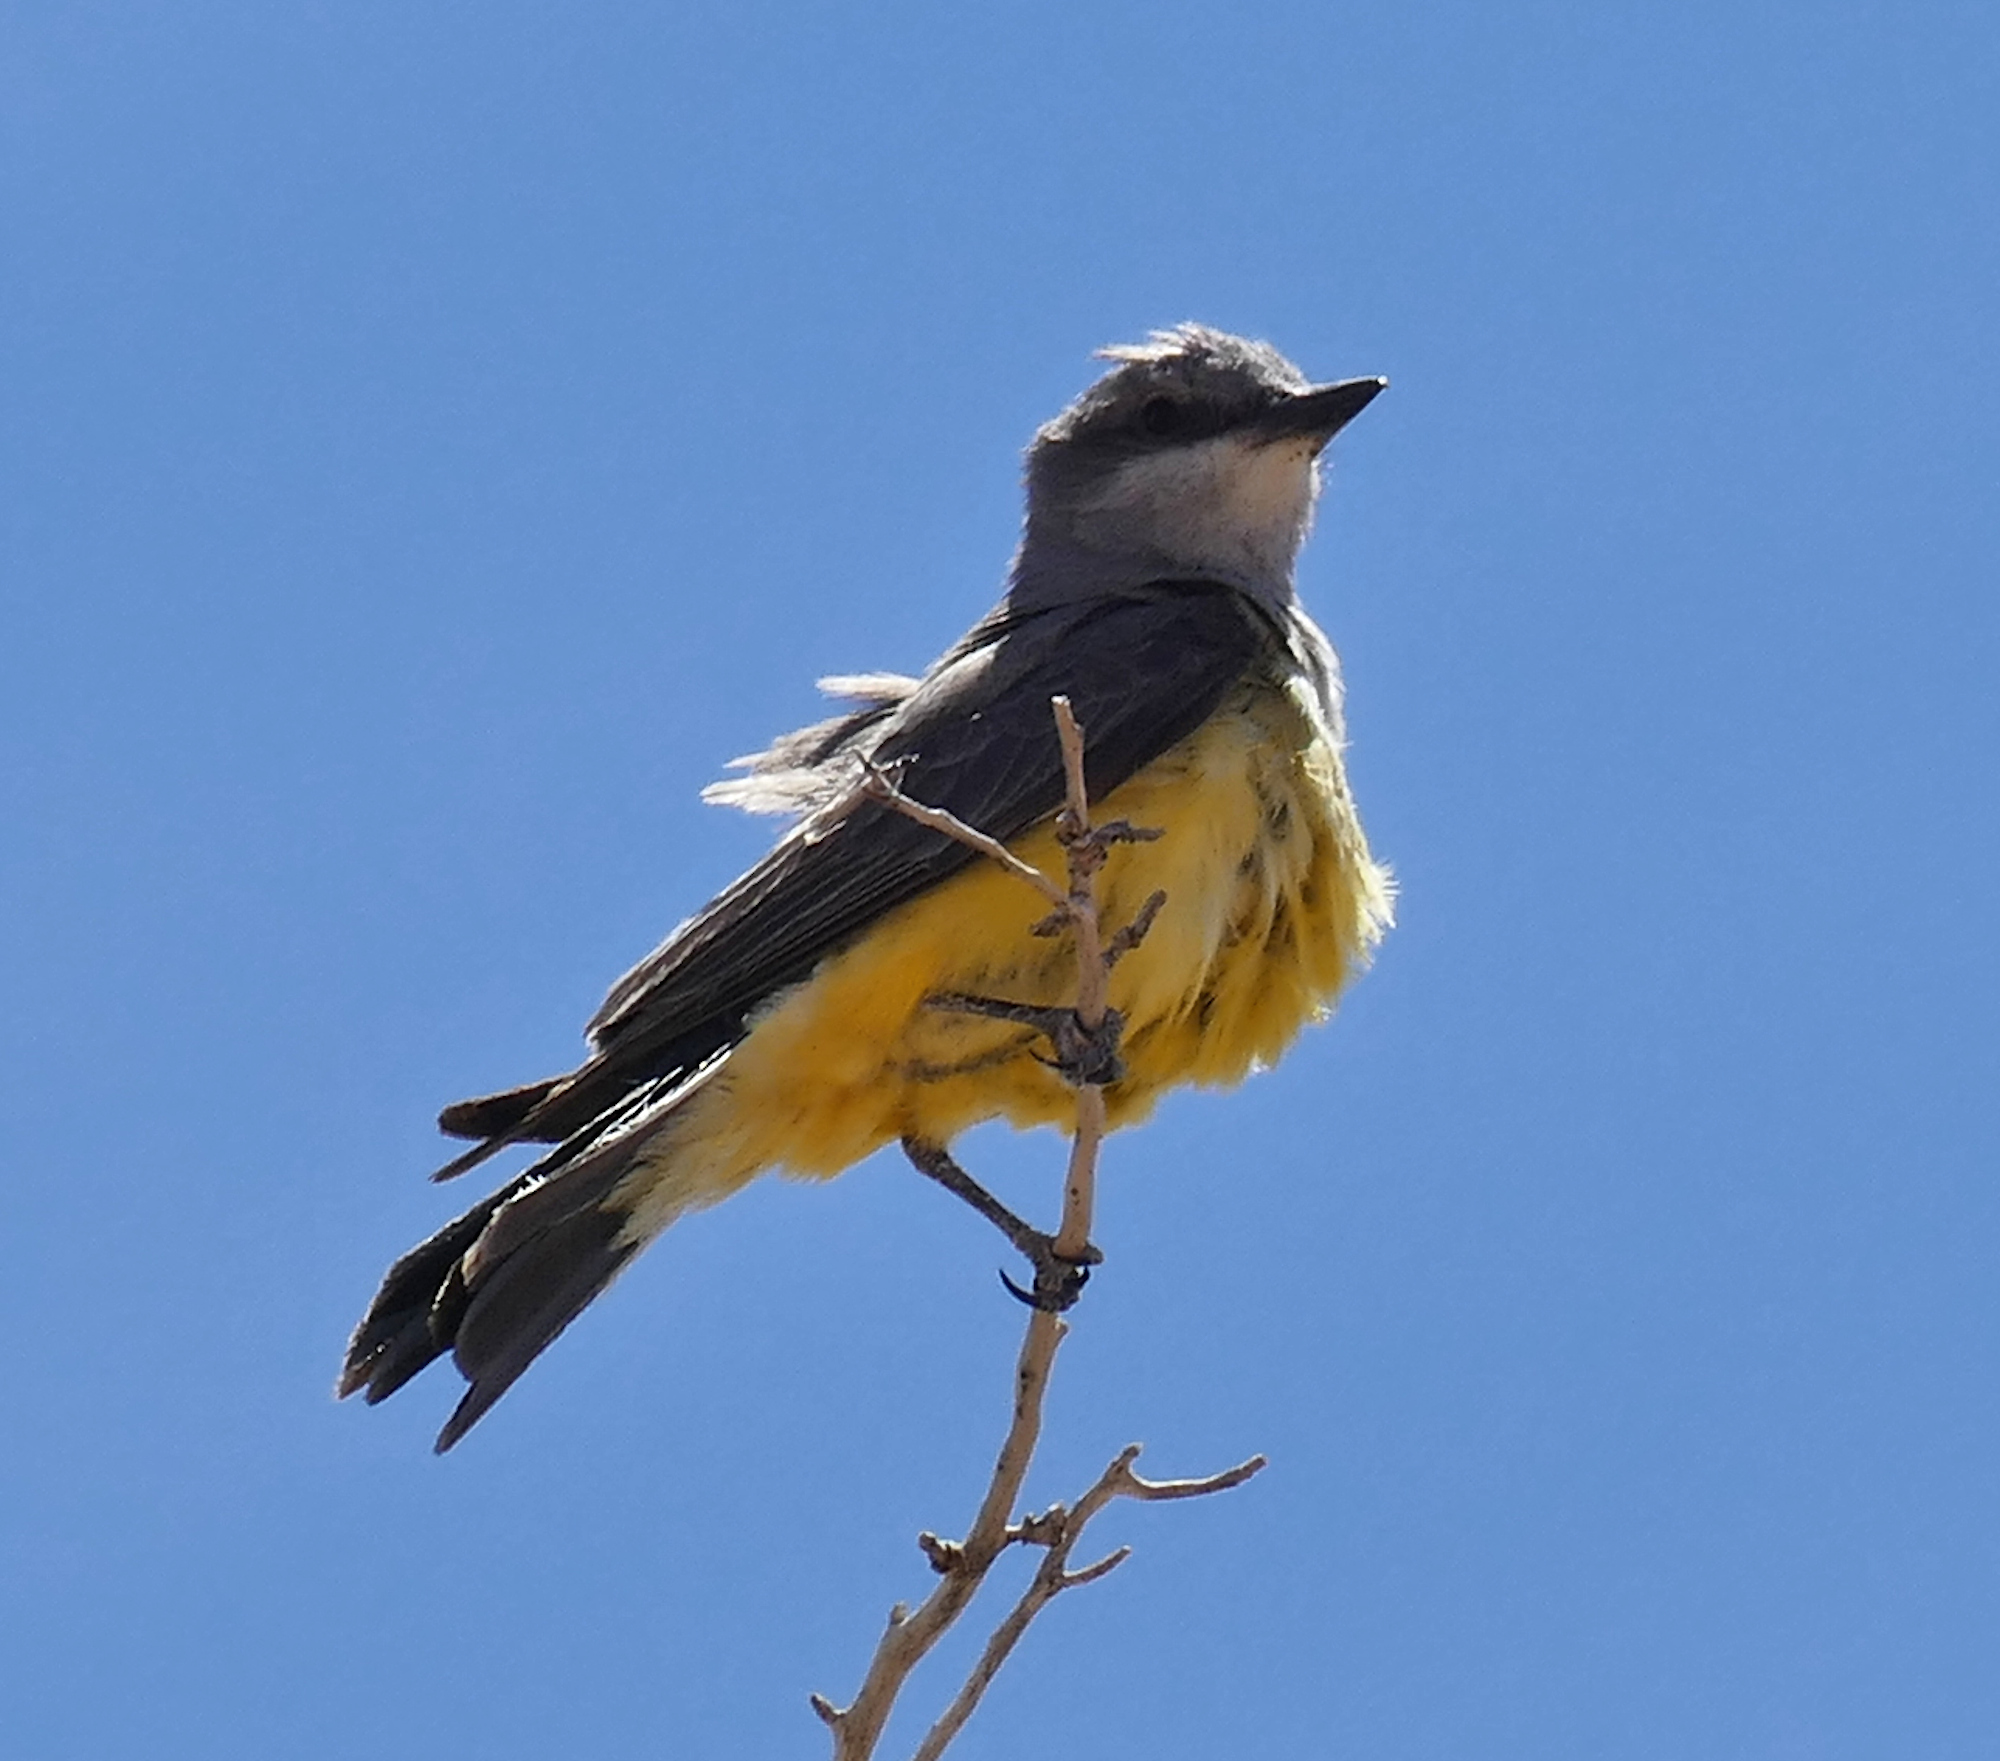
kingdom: Animalia
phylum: Chordata
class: Aves
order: Passeriformes
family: Tyrannidae
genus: Tyrannus
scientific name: Tyrannus verticalis
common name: Western kingbird
